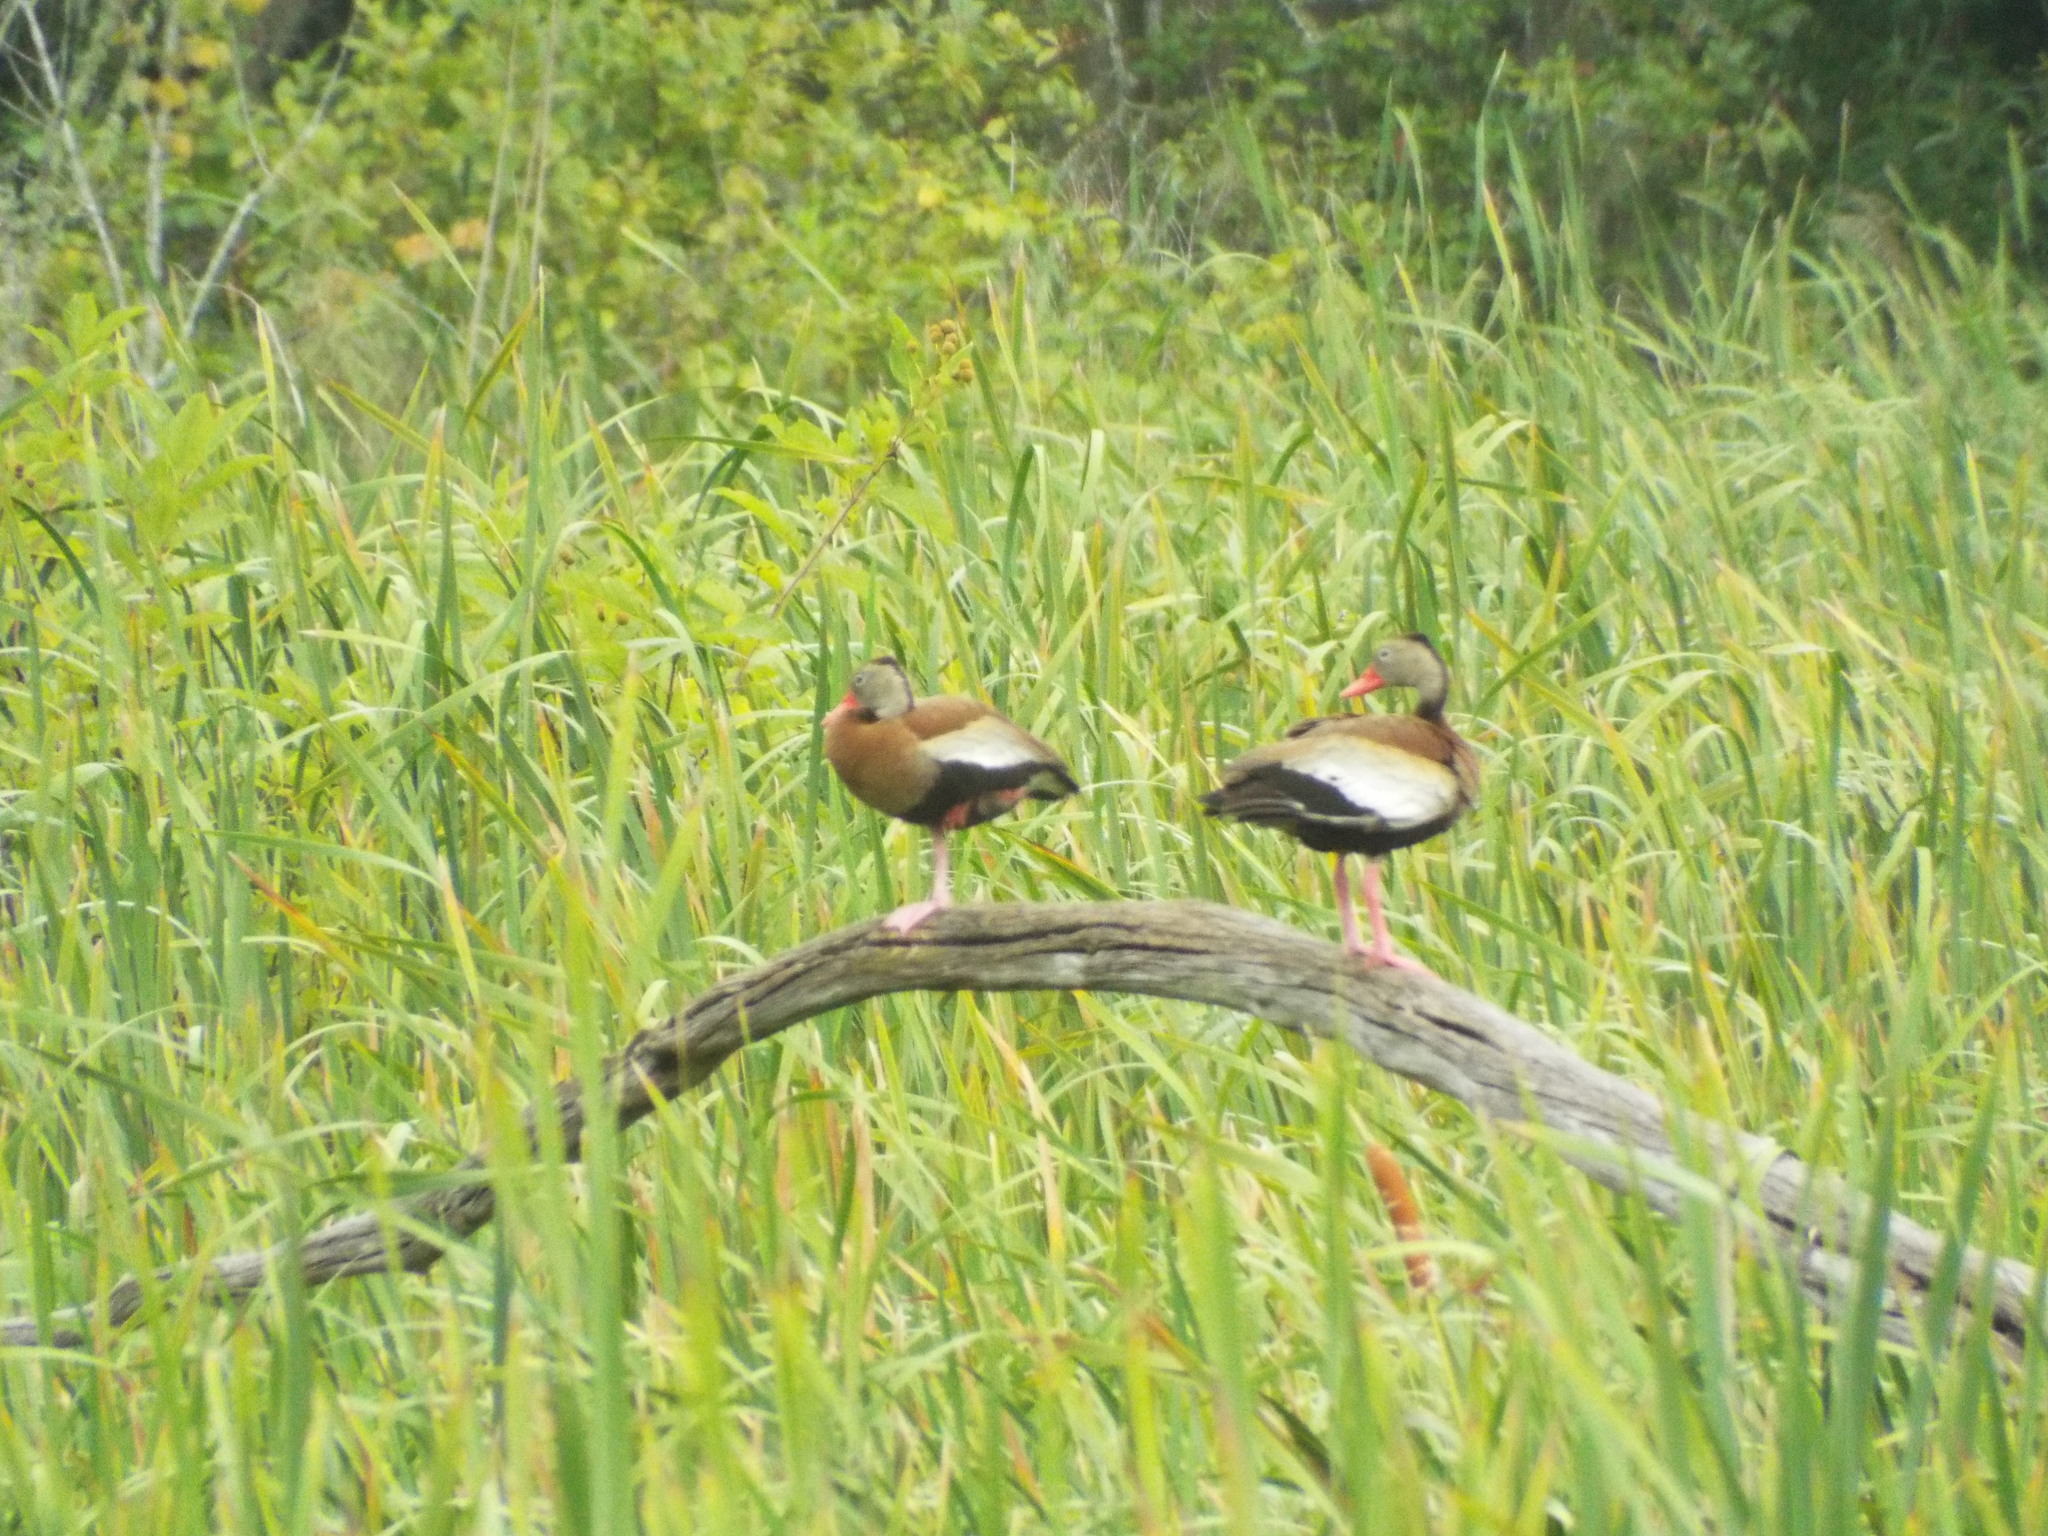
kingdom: Animalia
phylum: Chordata
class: Aves
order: Anseriformes
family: Anatidae
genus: Dendrocygna
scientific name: Dendrocygna autumnalis
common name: Black-bellied whistling duck
